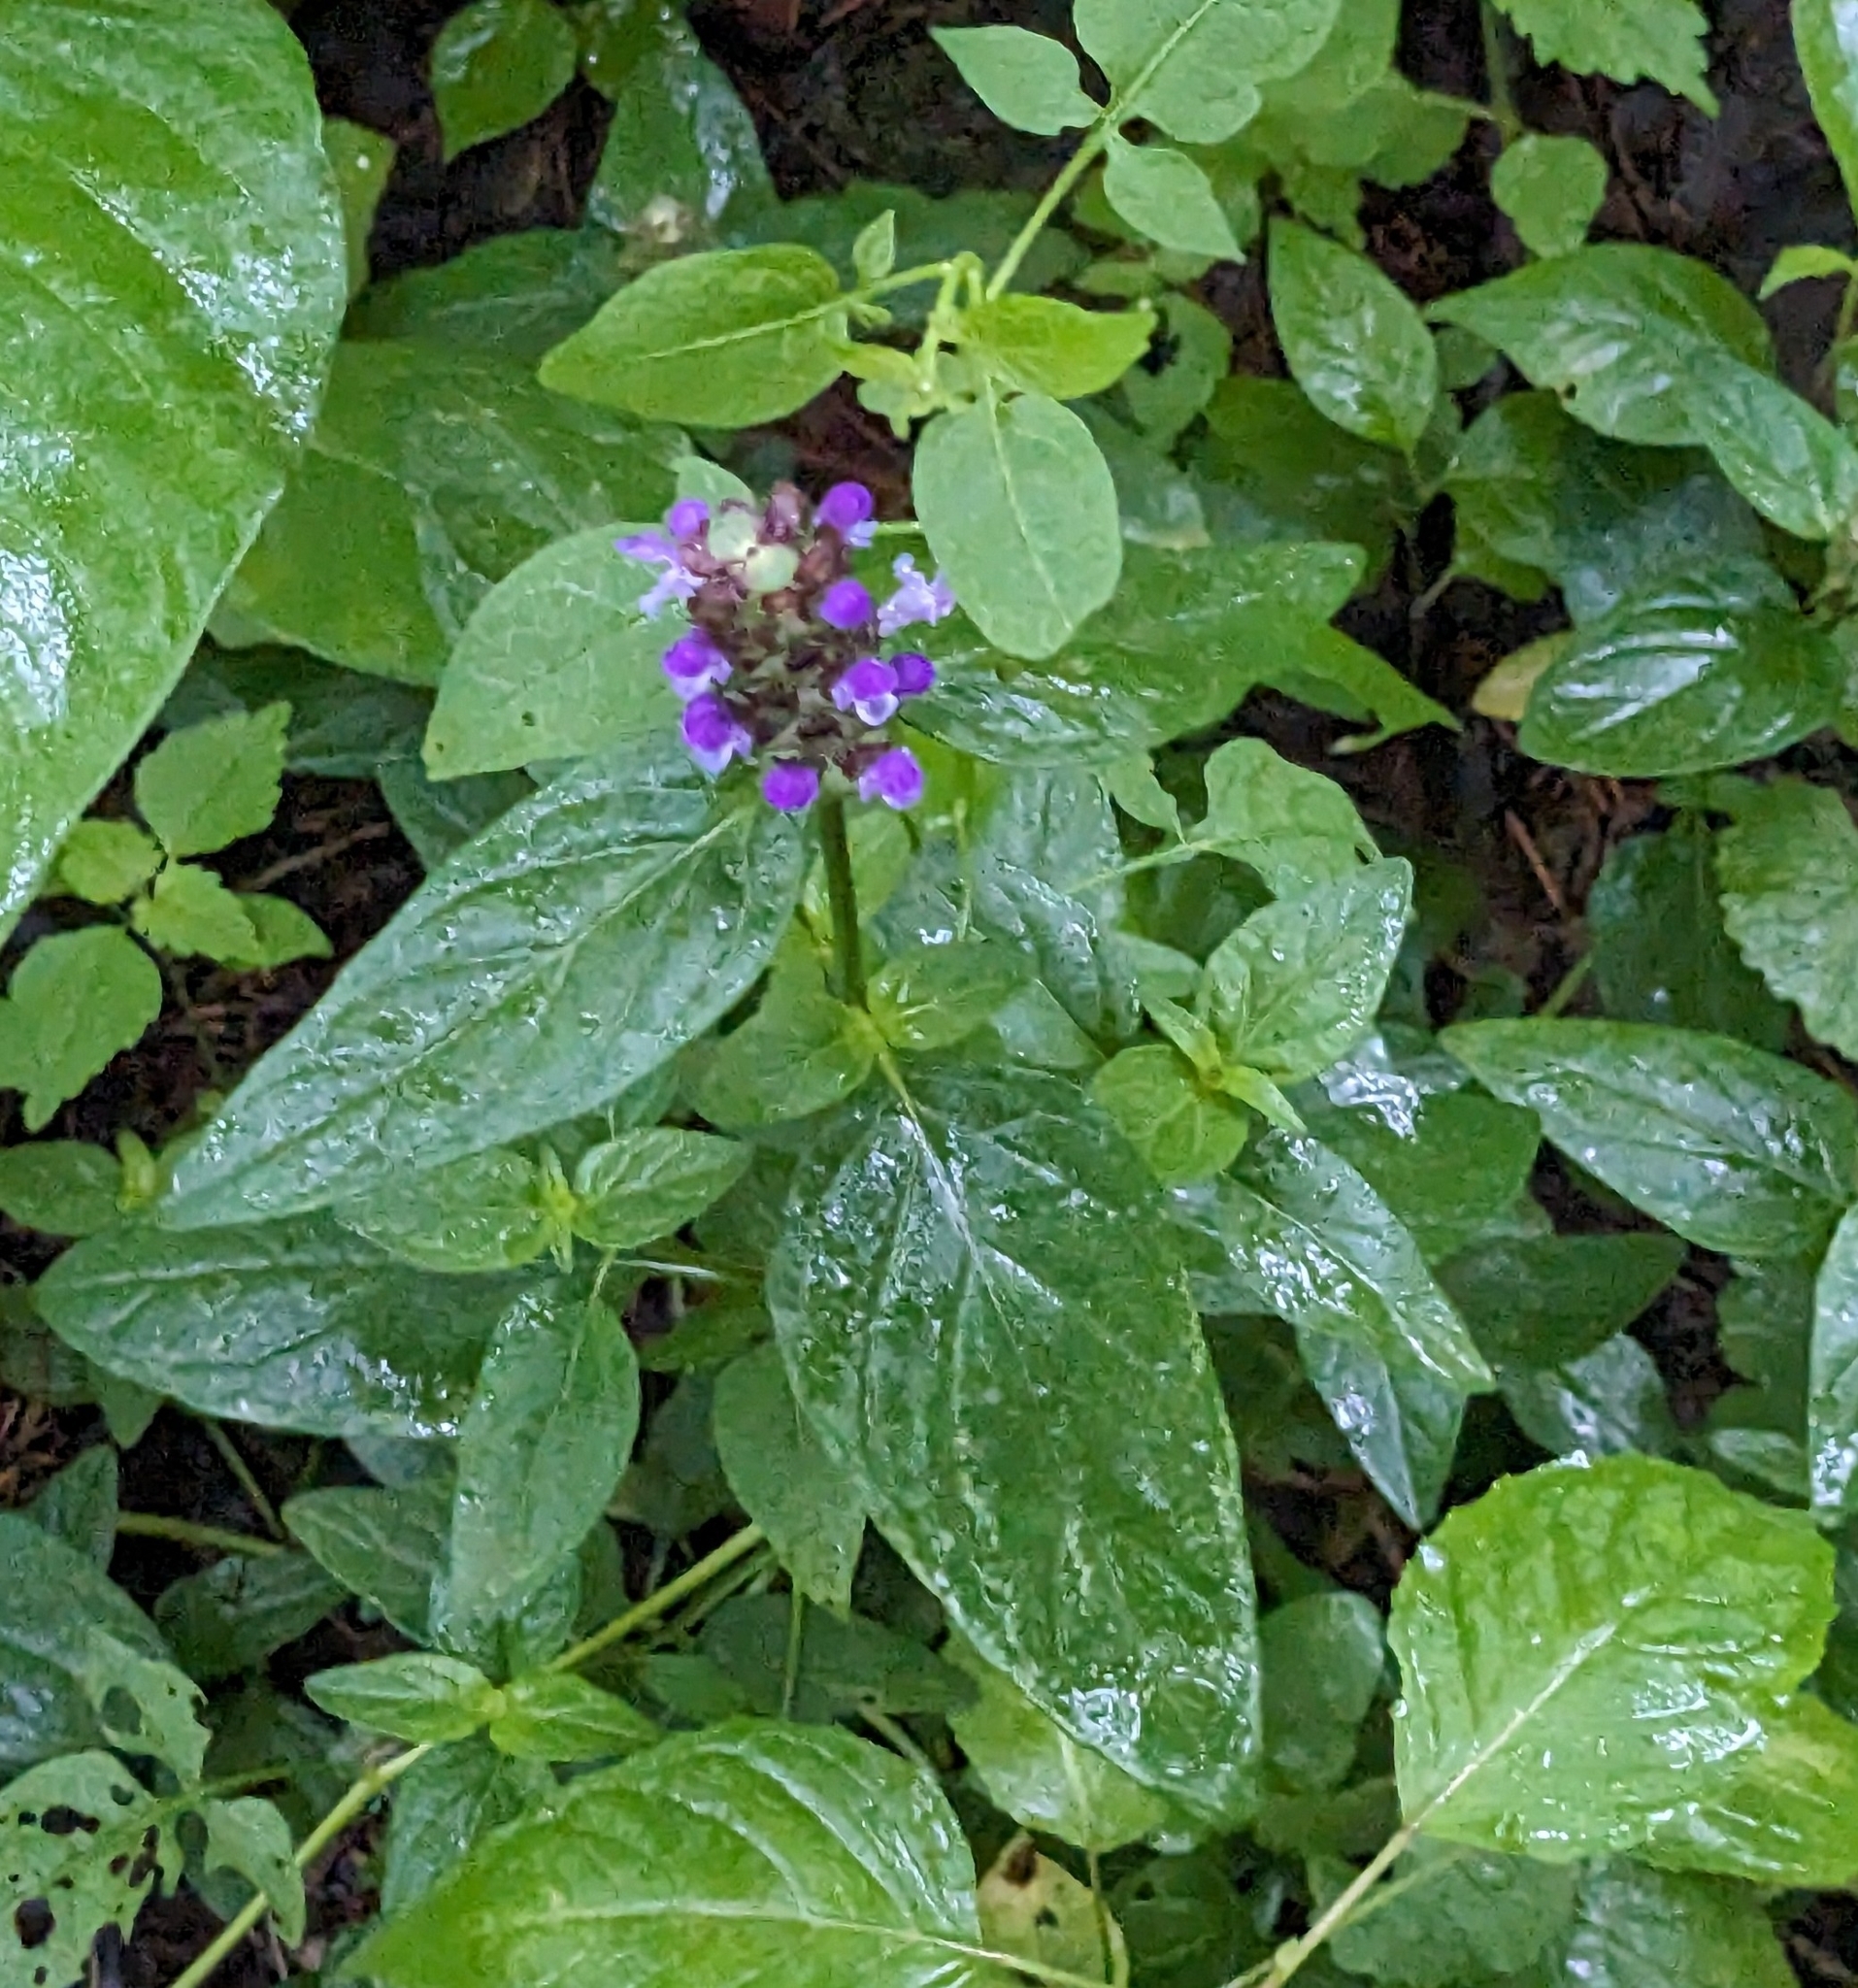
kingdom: Plantae
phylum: Tracheophyta
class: Magnoliopsida
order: Lamiales
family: Lamiaceae
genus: Prunella
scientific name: Prunella vulgaris
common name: Heal-all
